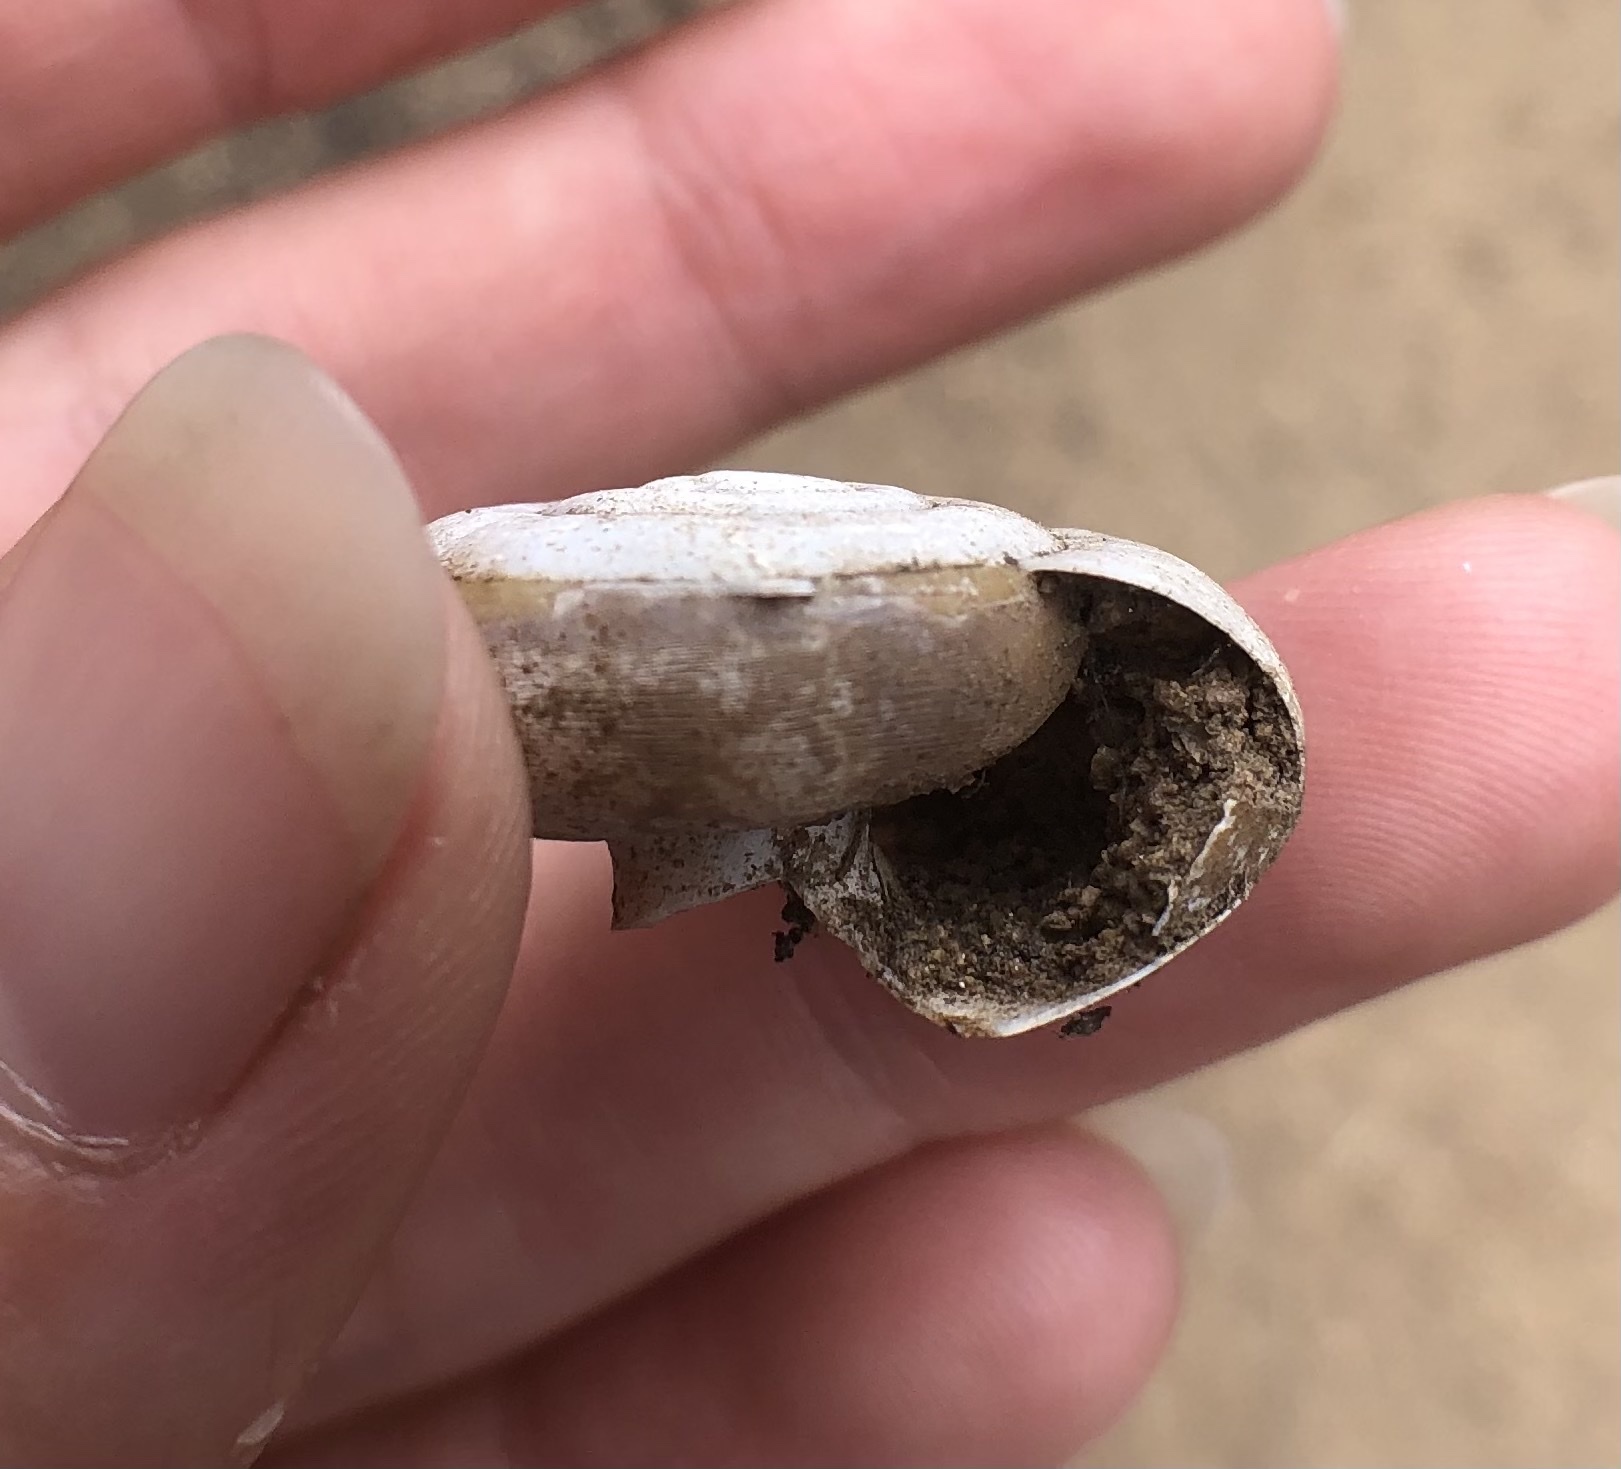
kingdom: Animalia
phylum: Mollusca
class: Gastropoda
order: Stylommatophora
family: Megomphicidae
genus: Glyptostoma
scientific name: Glyptostoma newberryanum
